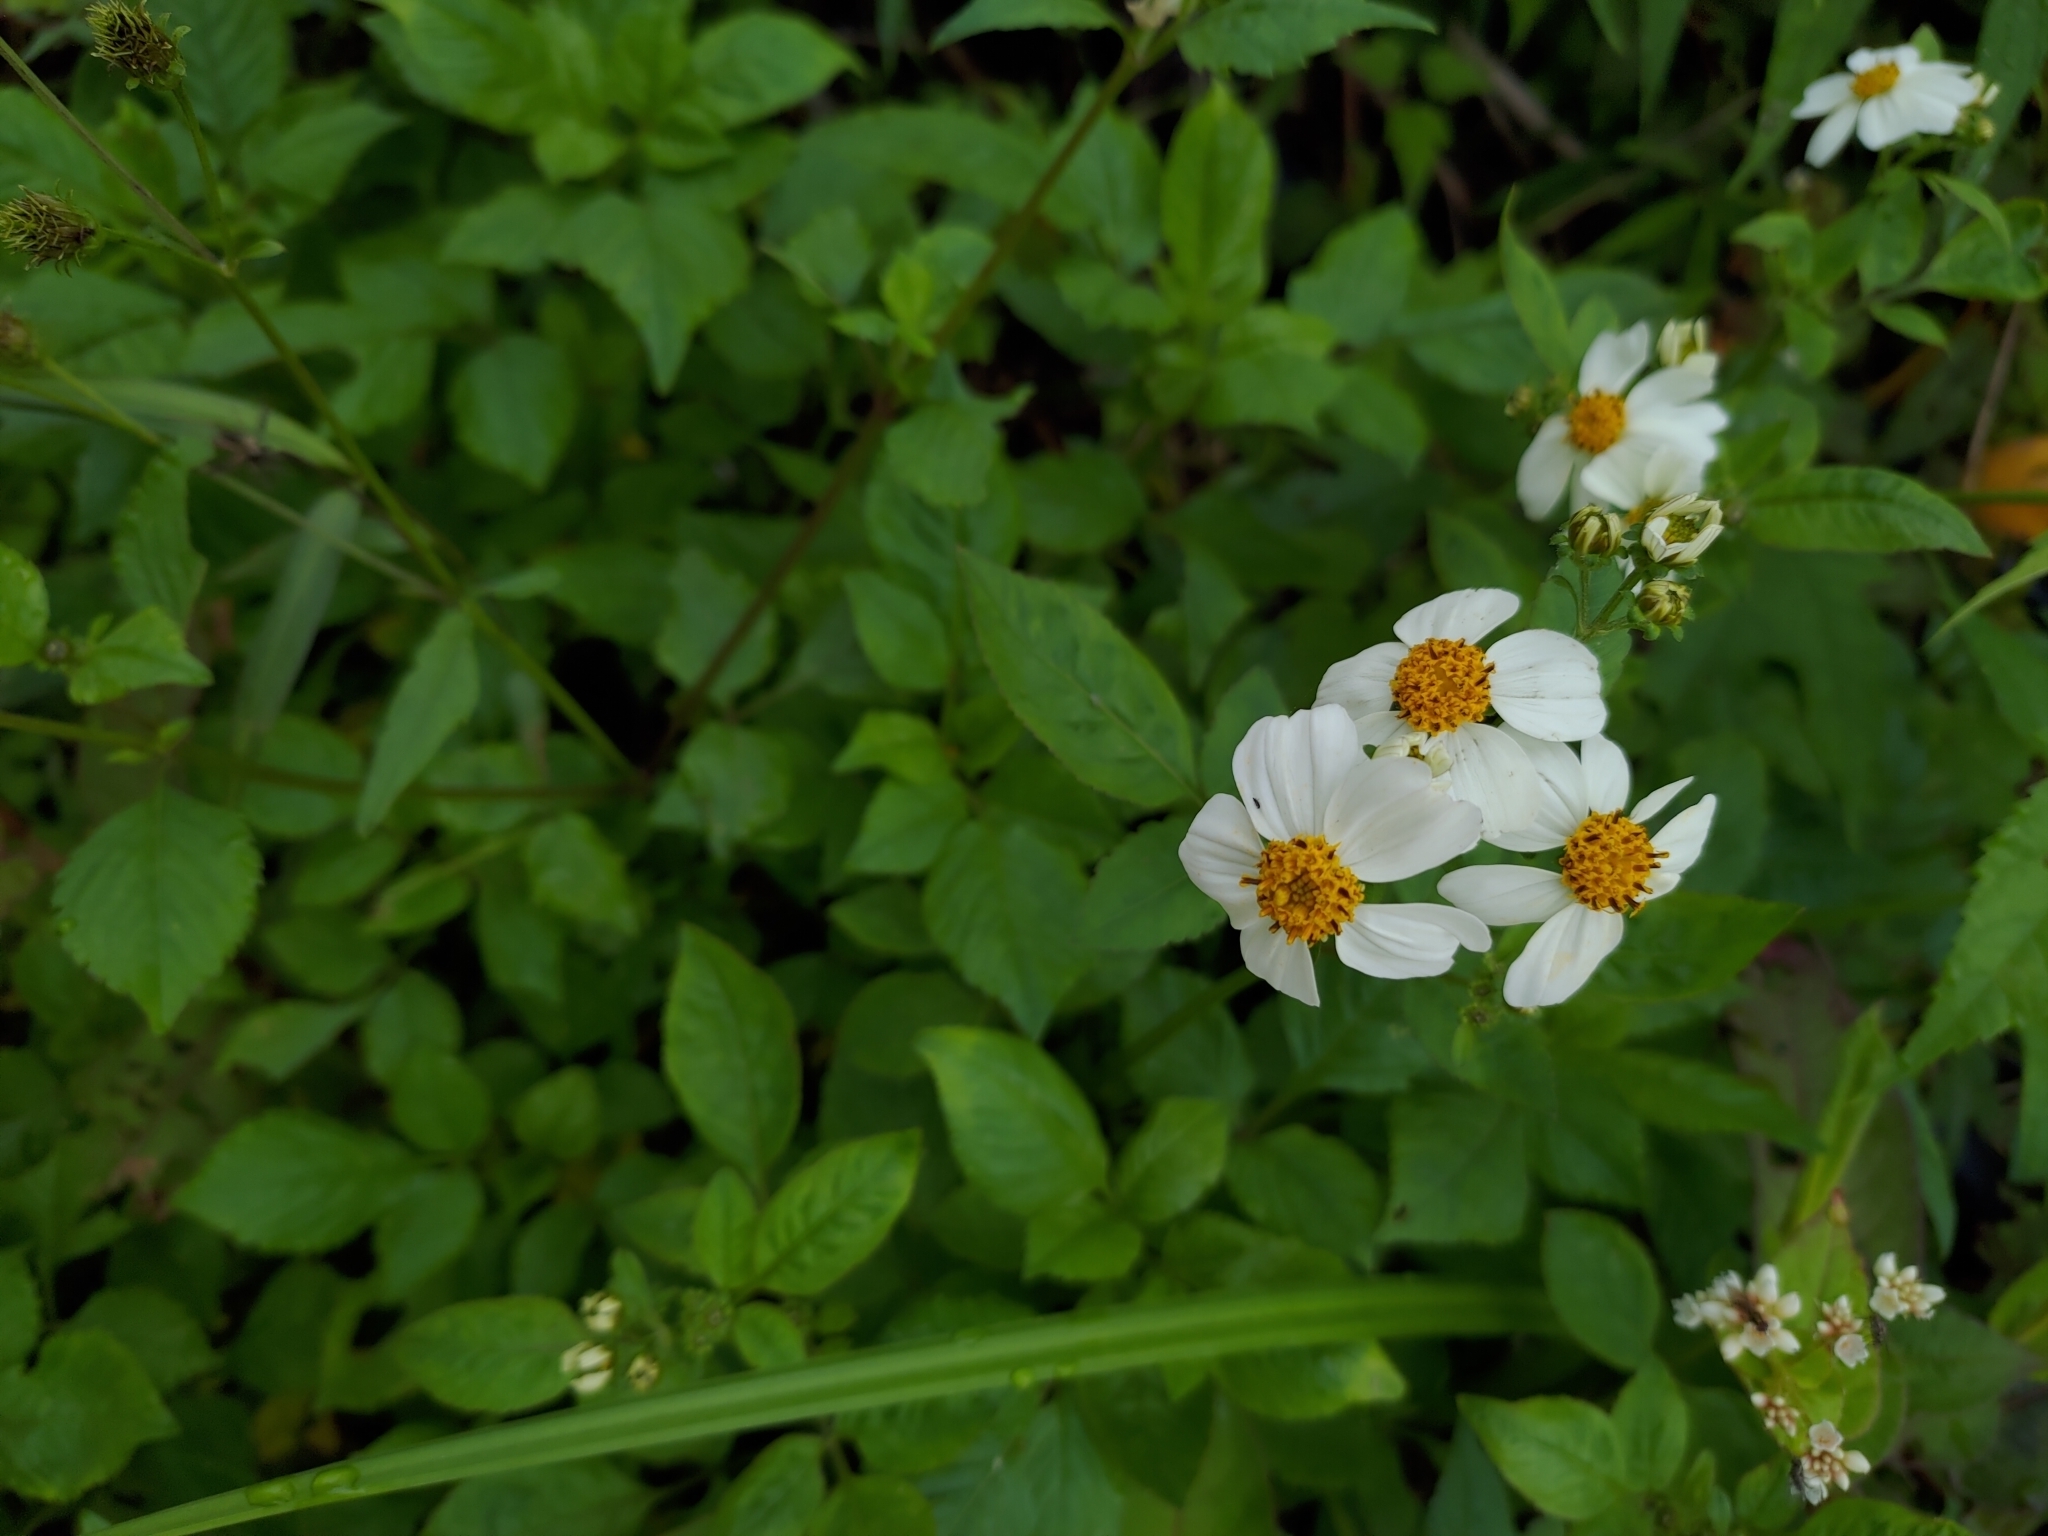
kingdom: Plantae
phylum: Tracheophyta
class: Magnoliopsida
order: Asterales
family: Asteraceae
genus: Bidens
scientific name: Bidens alba
